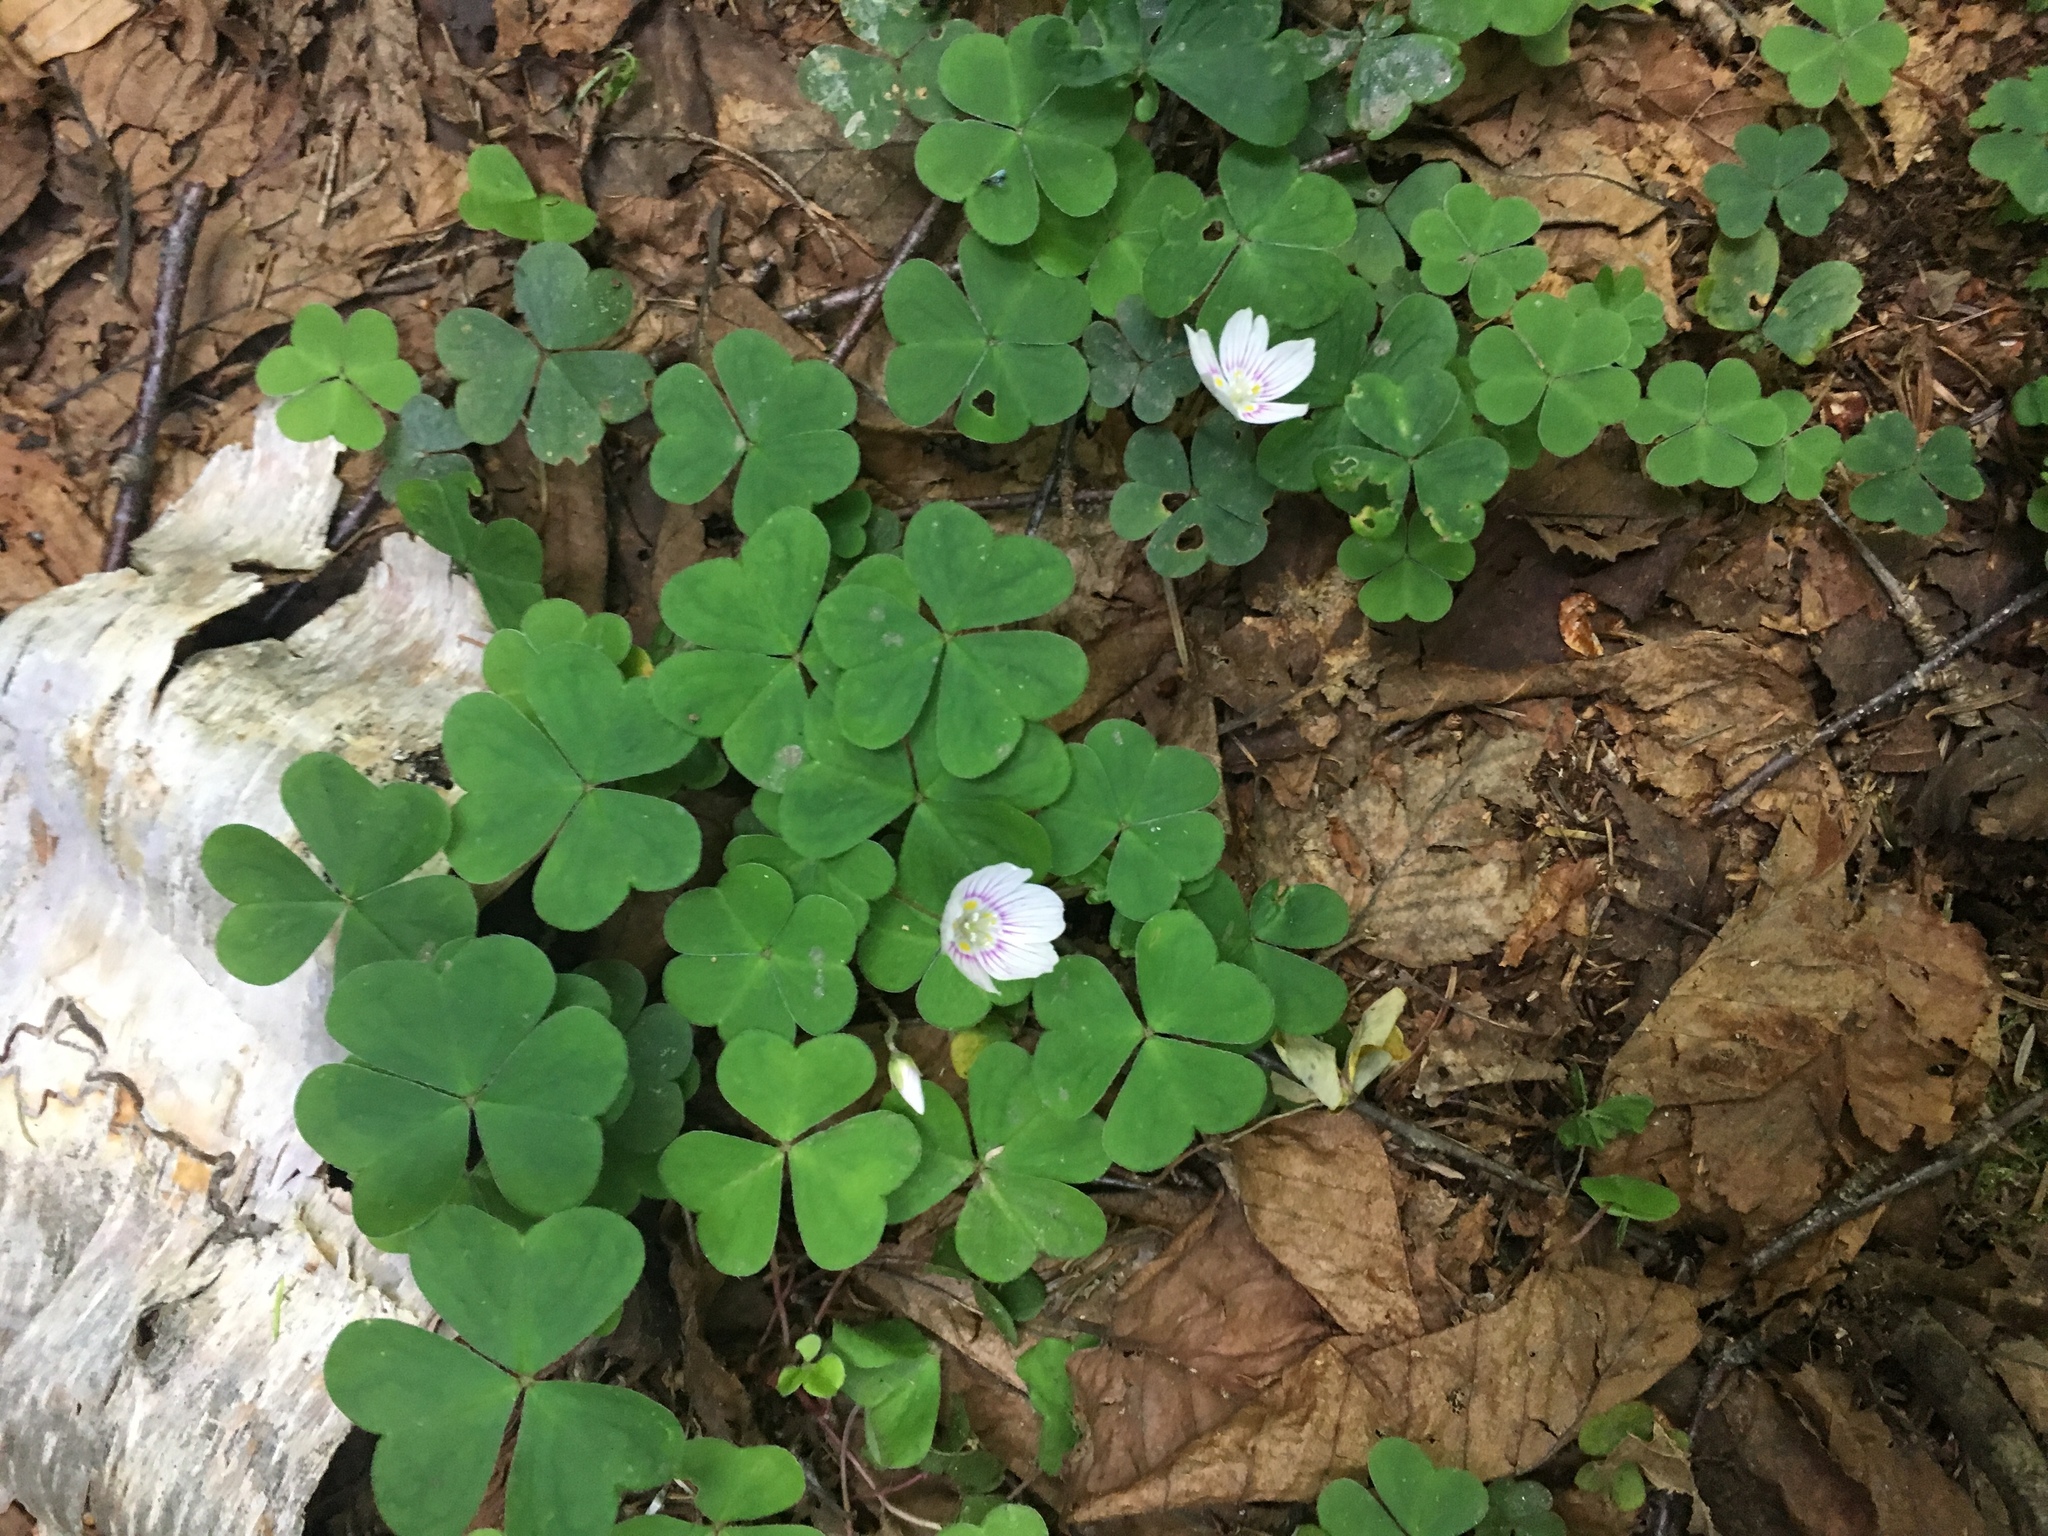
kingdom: Plantae
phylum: Tracheophyta
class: Magnoliopsida
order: Oxalidales
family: Oxalidaceae
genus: Oxalis
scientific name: Oxalis montana
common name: American wood-sorrel
